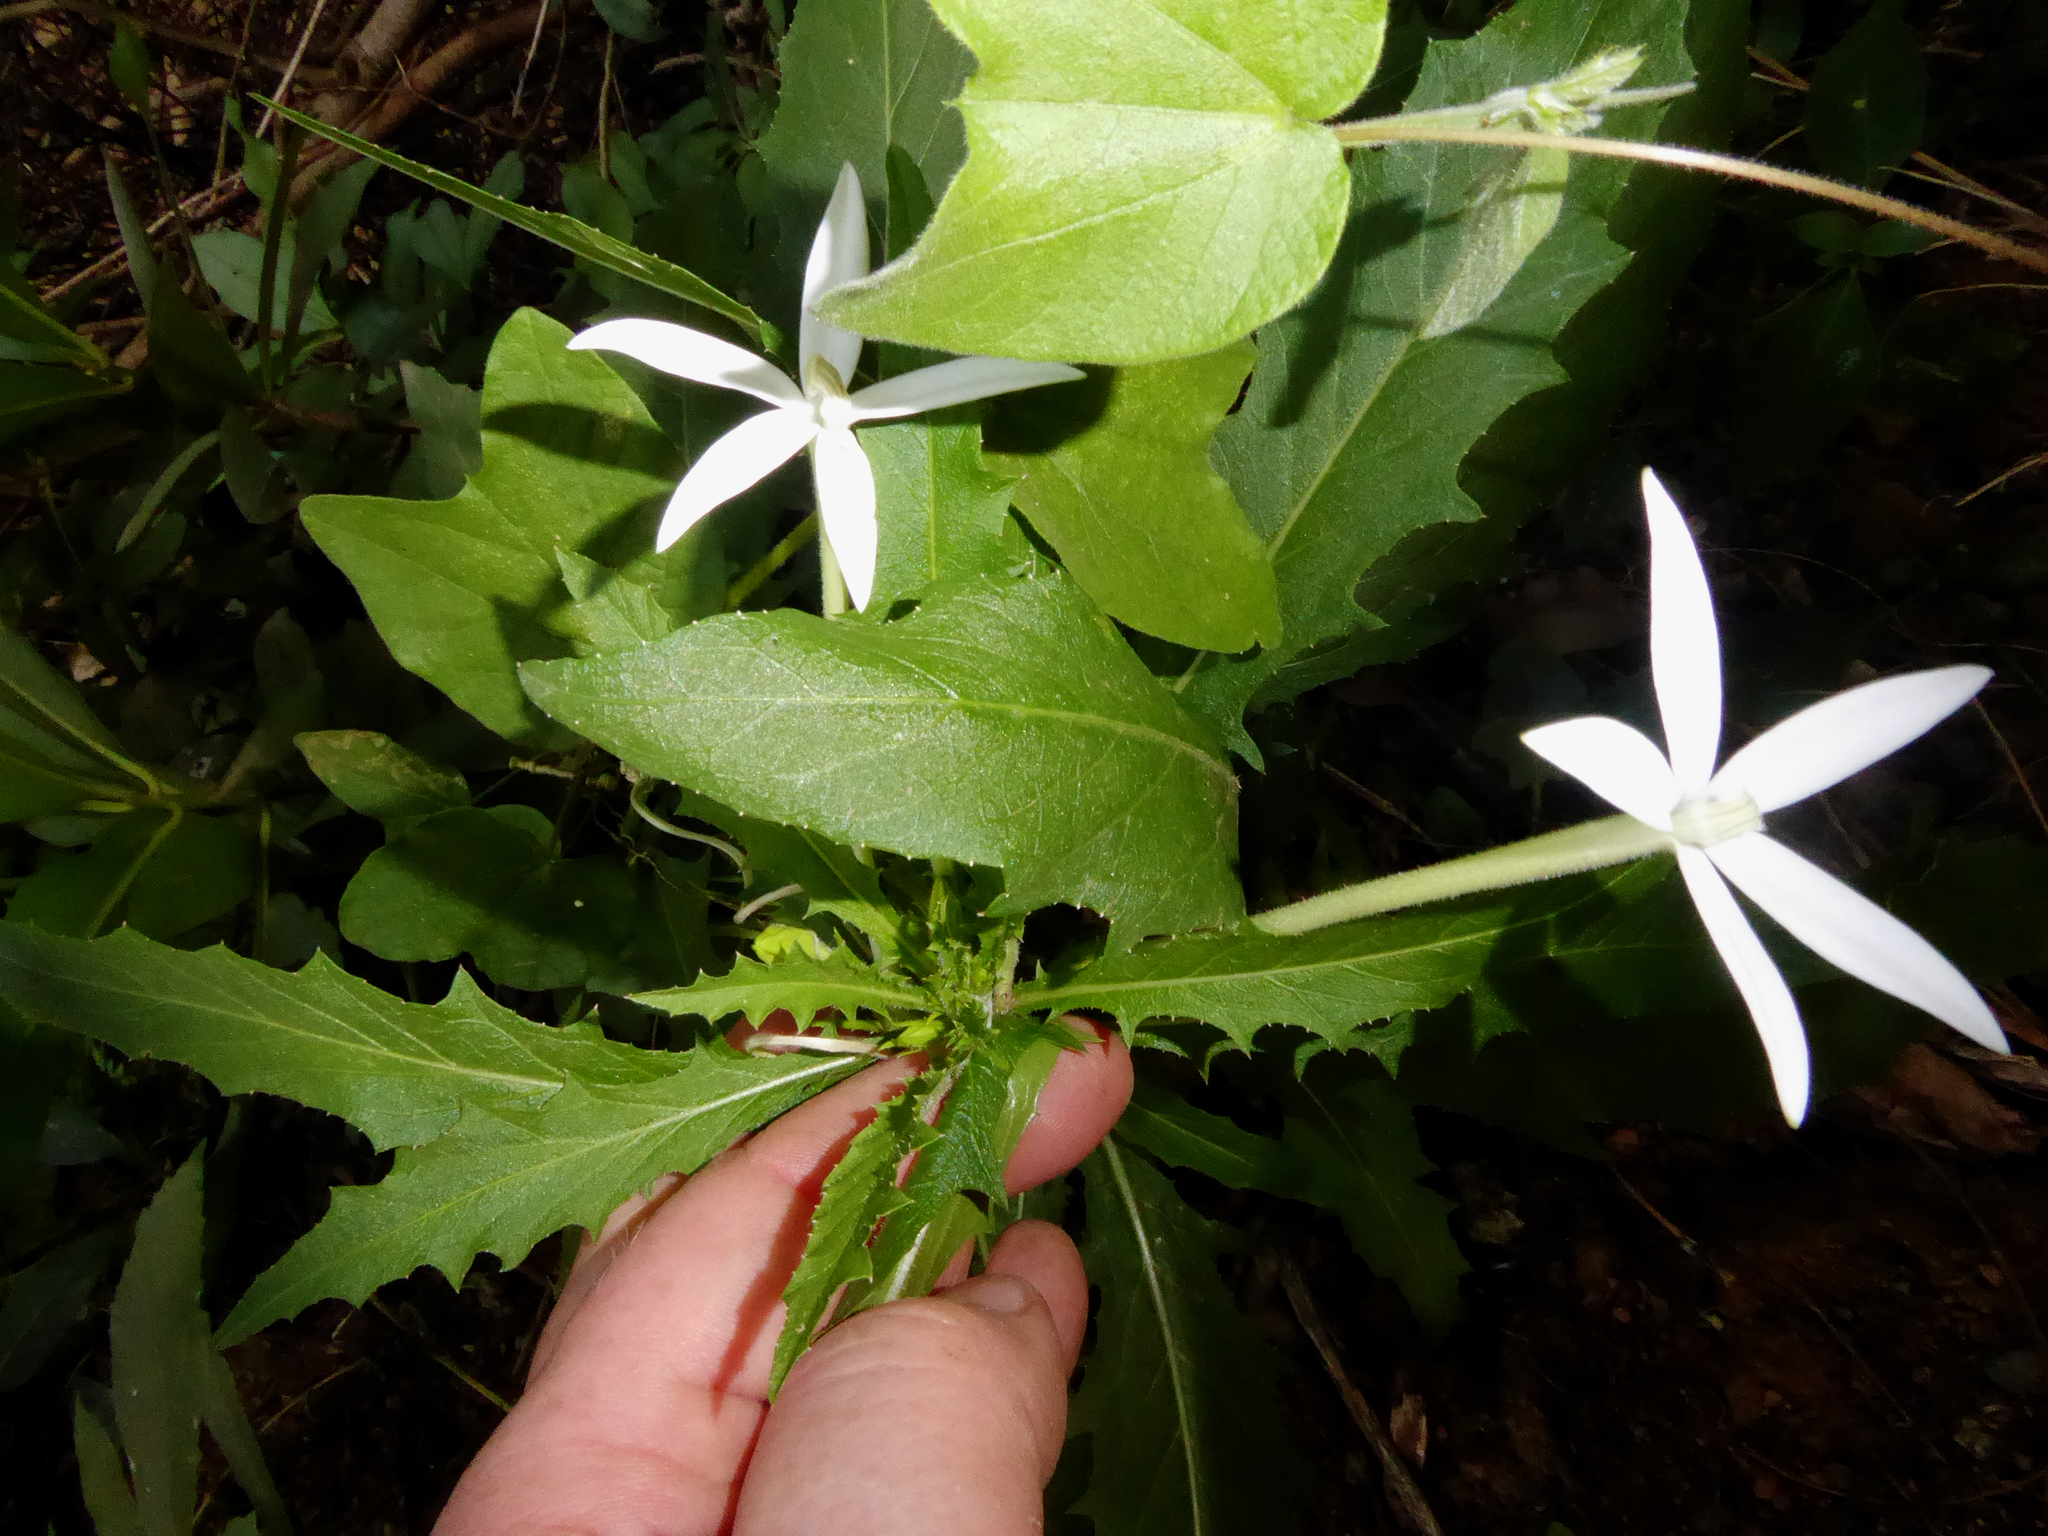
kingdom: Plantae
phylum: Tracheophyta
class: Magnoliopsida
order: Asterales
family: Campanulaceae
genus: Hippobroma
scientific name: Hippobroma longiflora
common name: Madamfate
